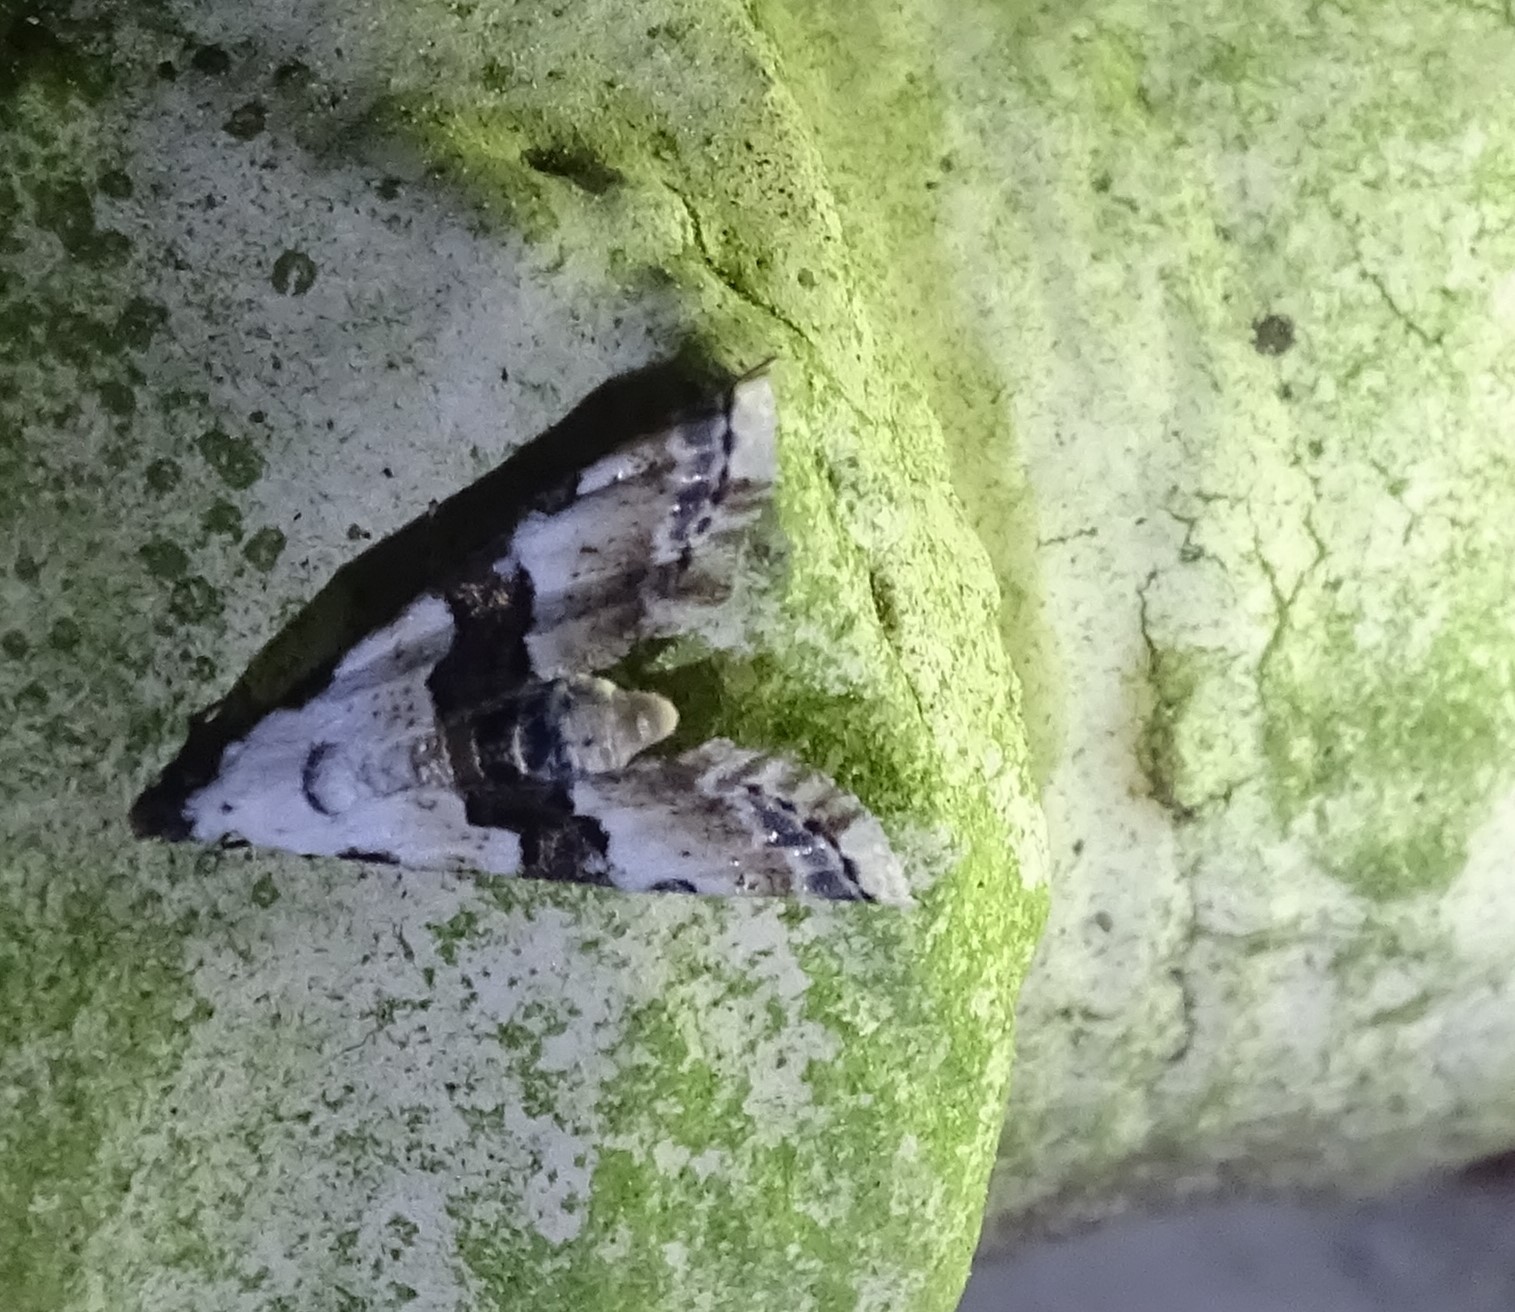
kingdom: Animalia
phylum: Arthropoda
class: Insecta
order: Lepidoptera
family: Noctuidae
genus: Nigetia
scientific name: Nigetia formosalis
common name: Thin-winged owlet
